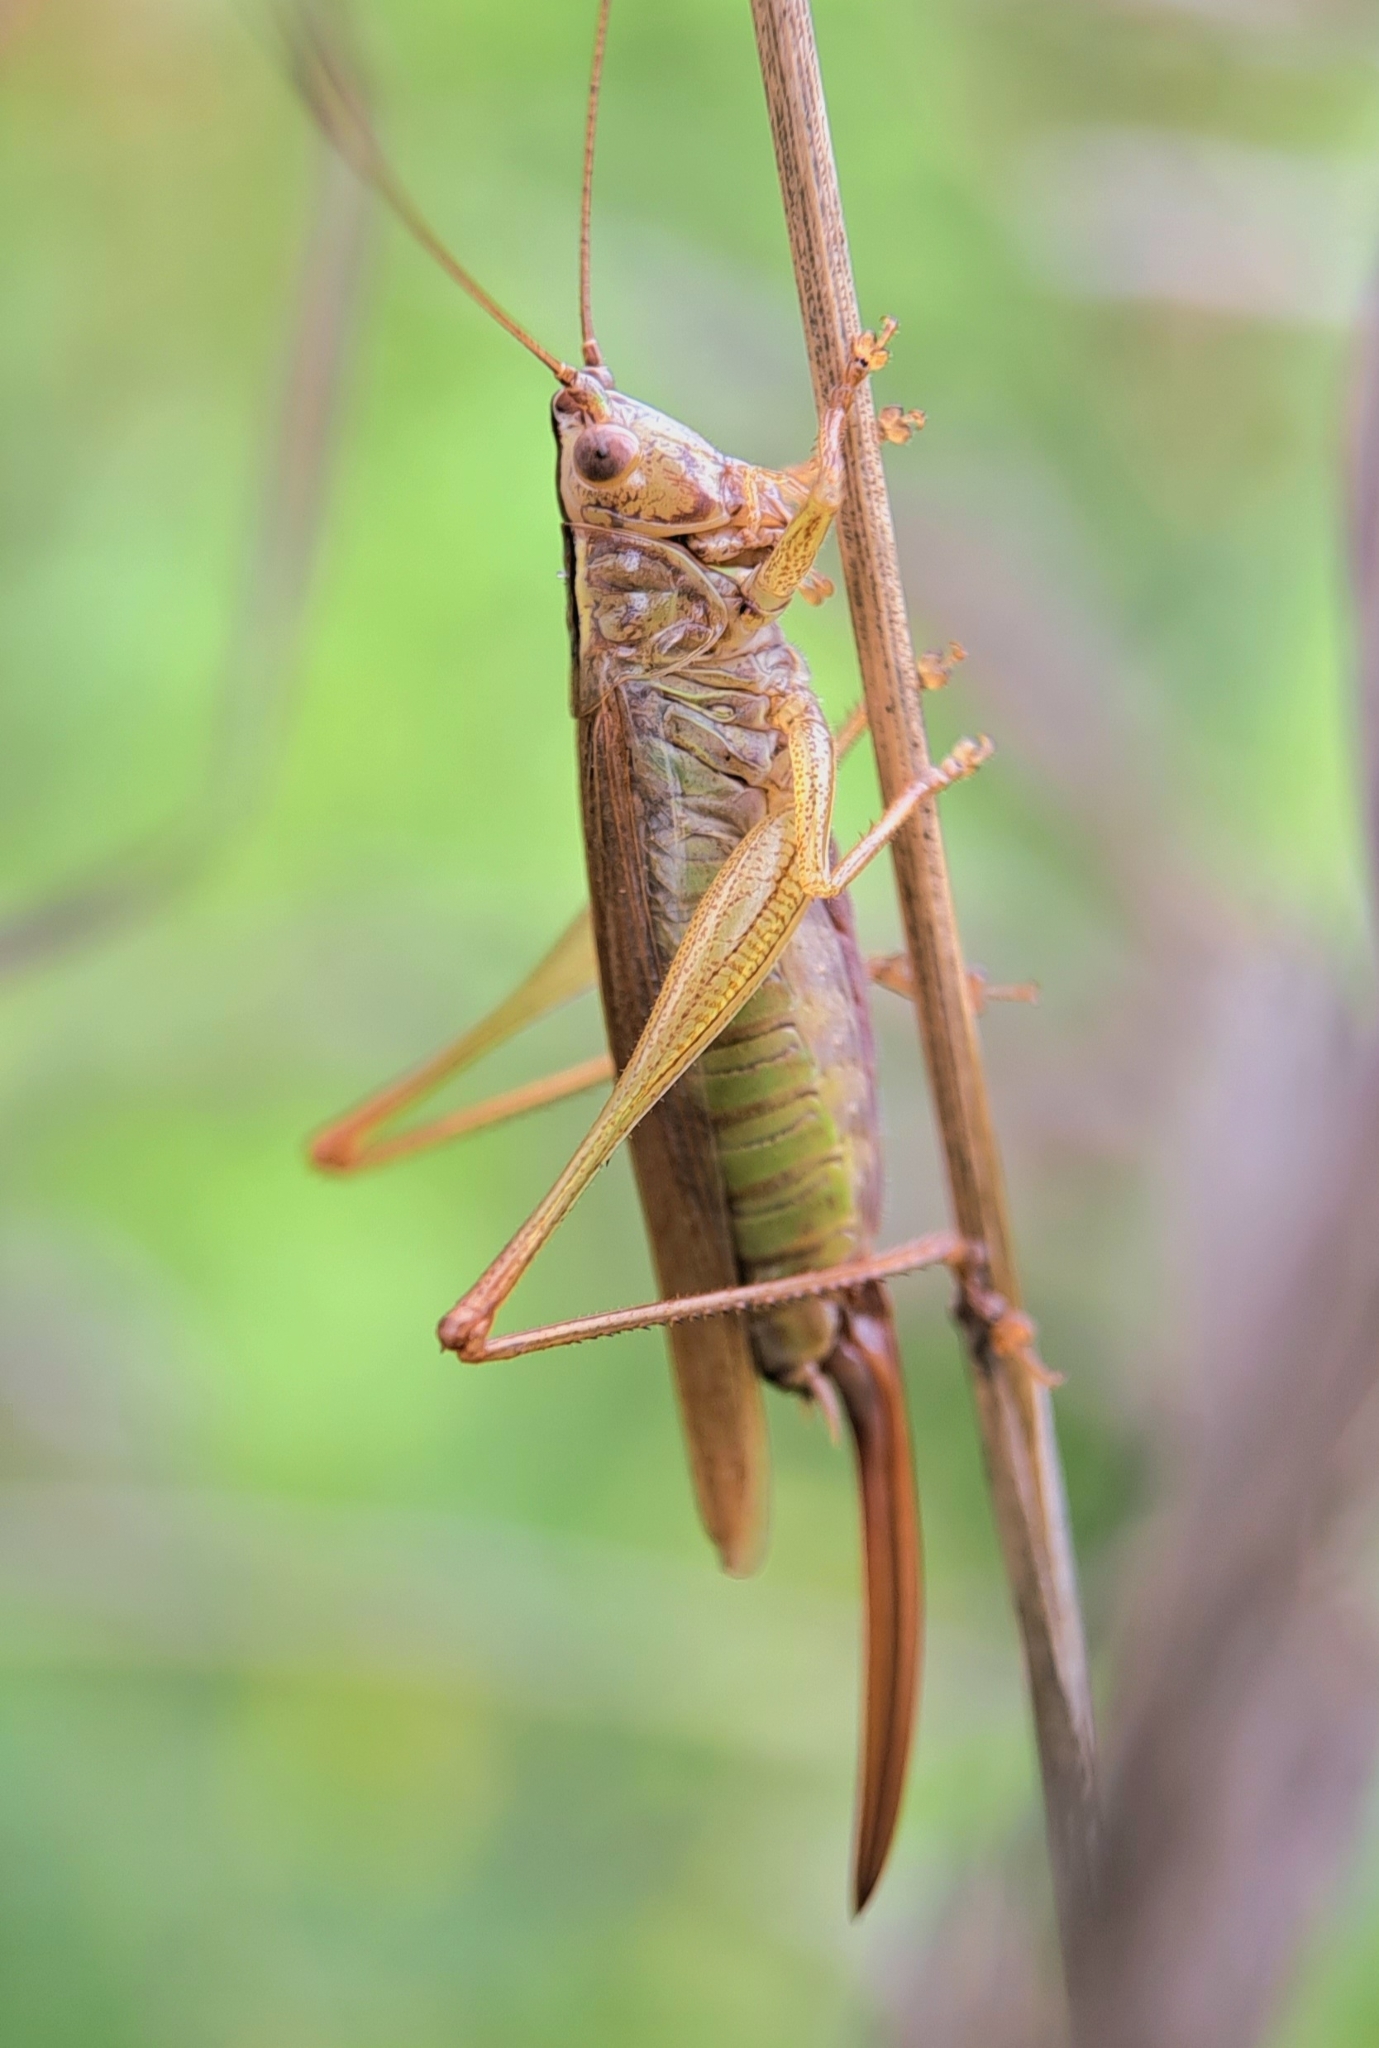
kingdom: Animalia
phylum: Arthropoda
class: Insecta
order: Orthoptera
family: Tettigoniidae
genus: Conocephalus
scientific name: Conocephalus fuscus
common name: Long-winged conehead
